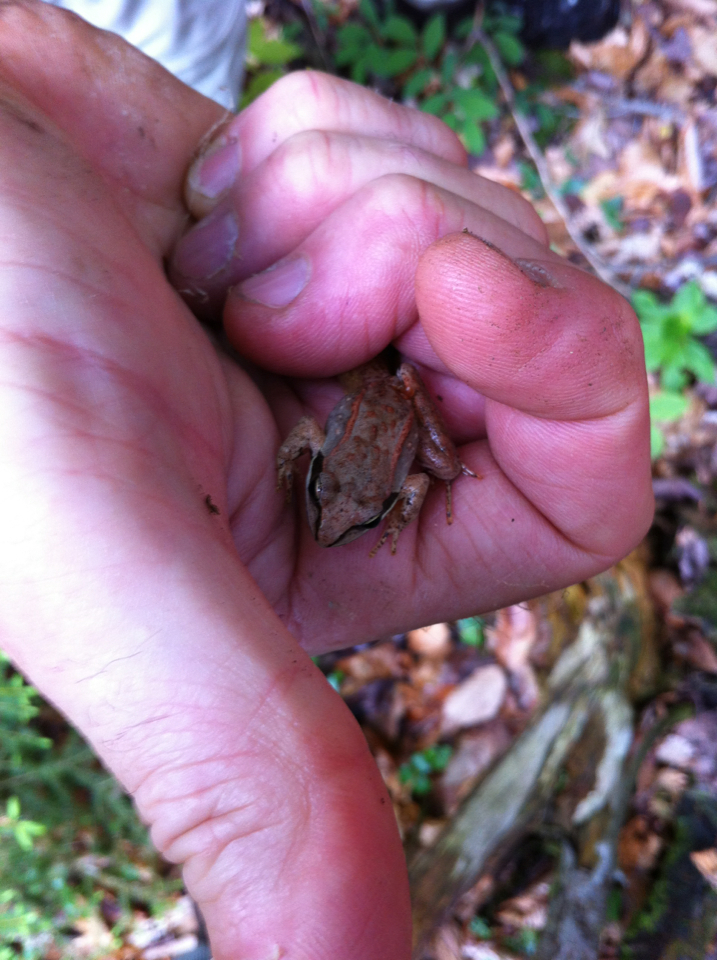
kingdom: Animalia
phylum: Chordata
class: Amphibia
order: Anura
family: Ranidae
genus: Lithobates
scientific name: Lithobates sylvaticus
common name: Wood frog
